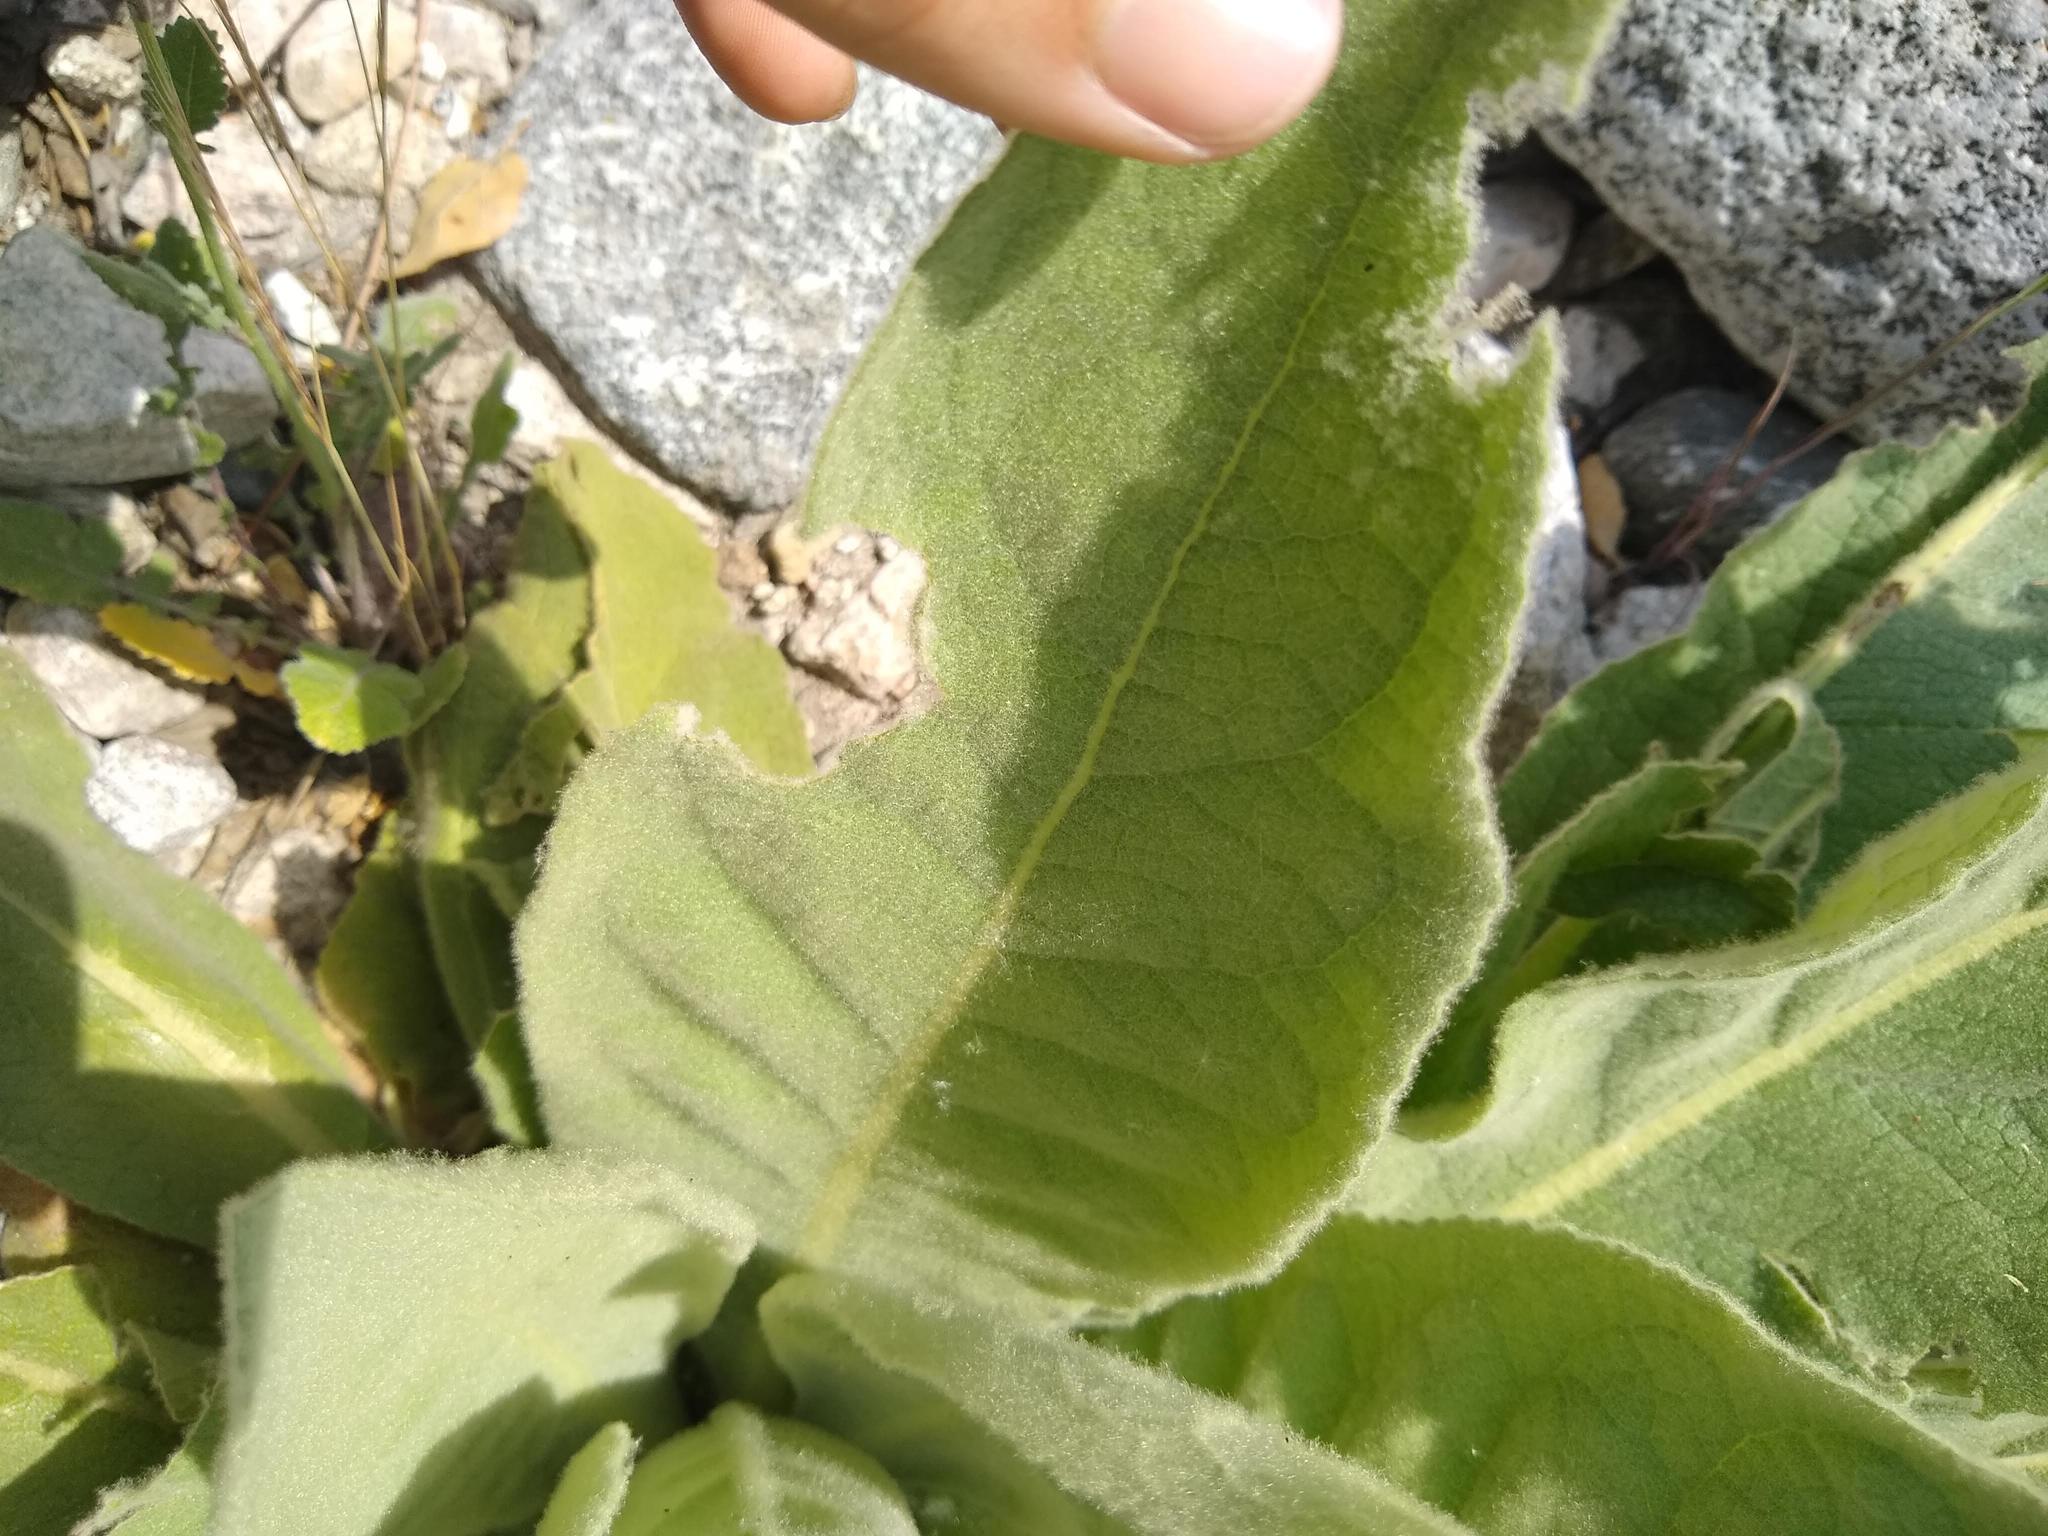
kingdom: Plantae
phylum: Tracheophyta
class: Magnoliopsida
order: Lamiales
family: Scrophulariaceae
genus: Verbascum
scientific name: Verbascum thapsus
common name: Common mullein
